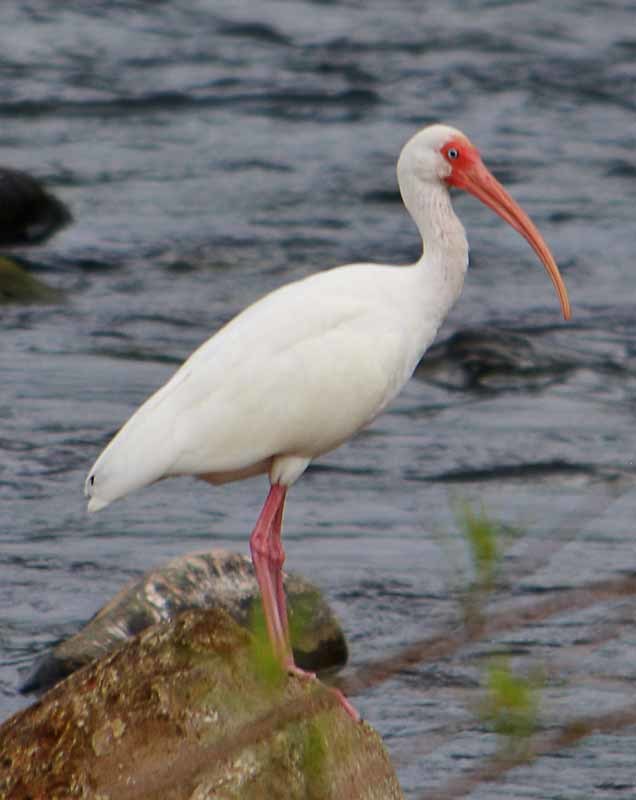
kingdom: Animalia
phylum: Chordata
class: Aves
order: Pelecaniformes
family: Threskiornithidae
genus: Eudocimus
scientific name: Eudocimus albus
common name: White ibis
